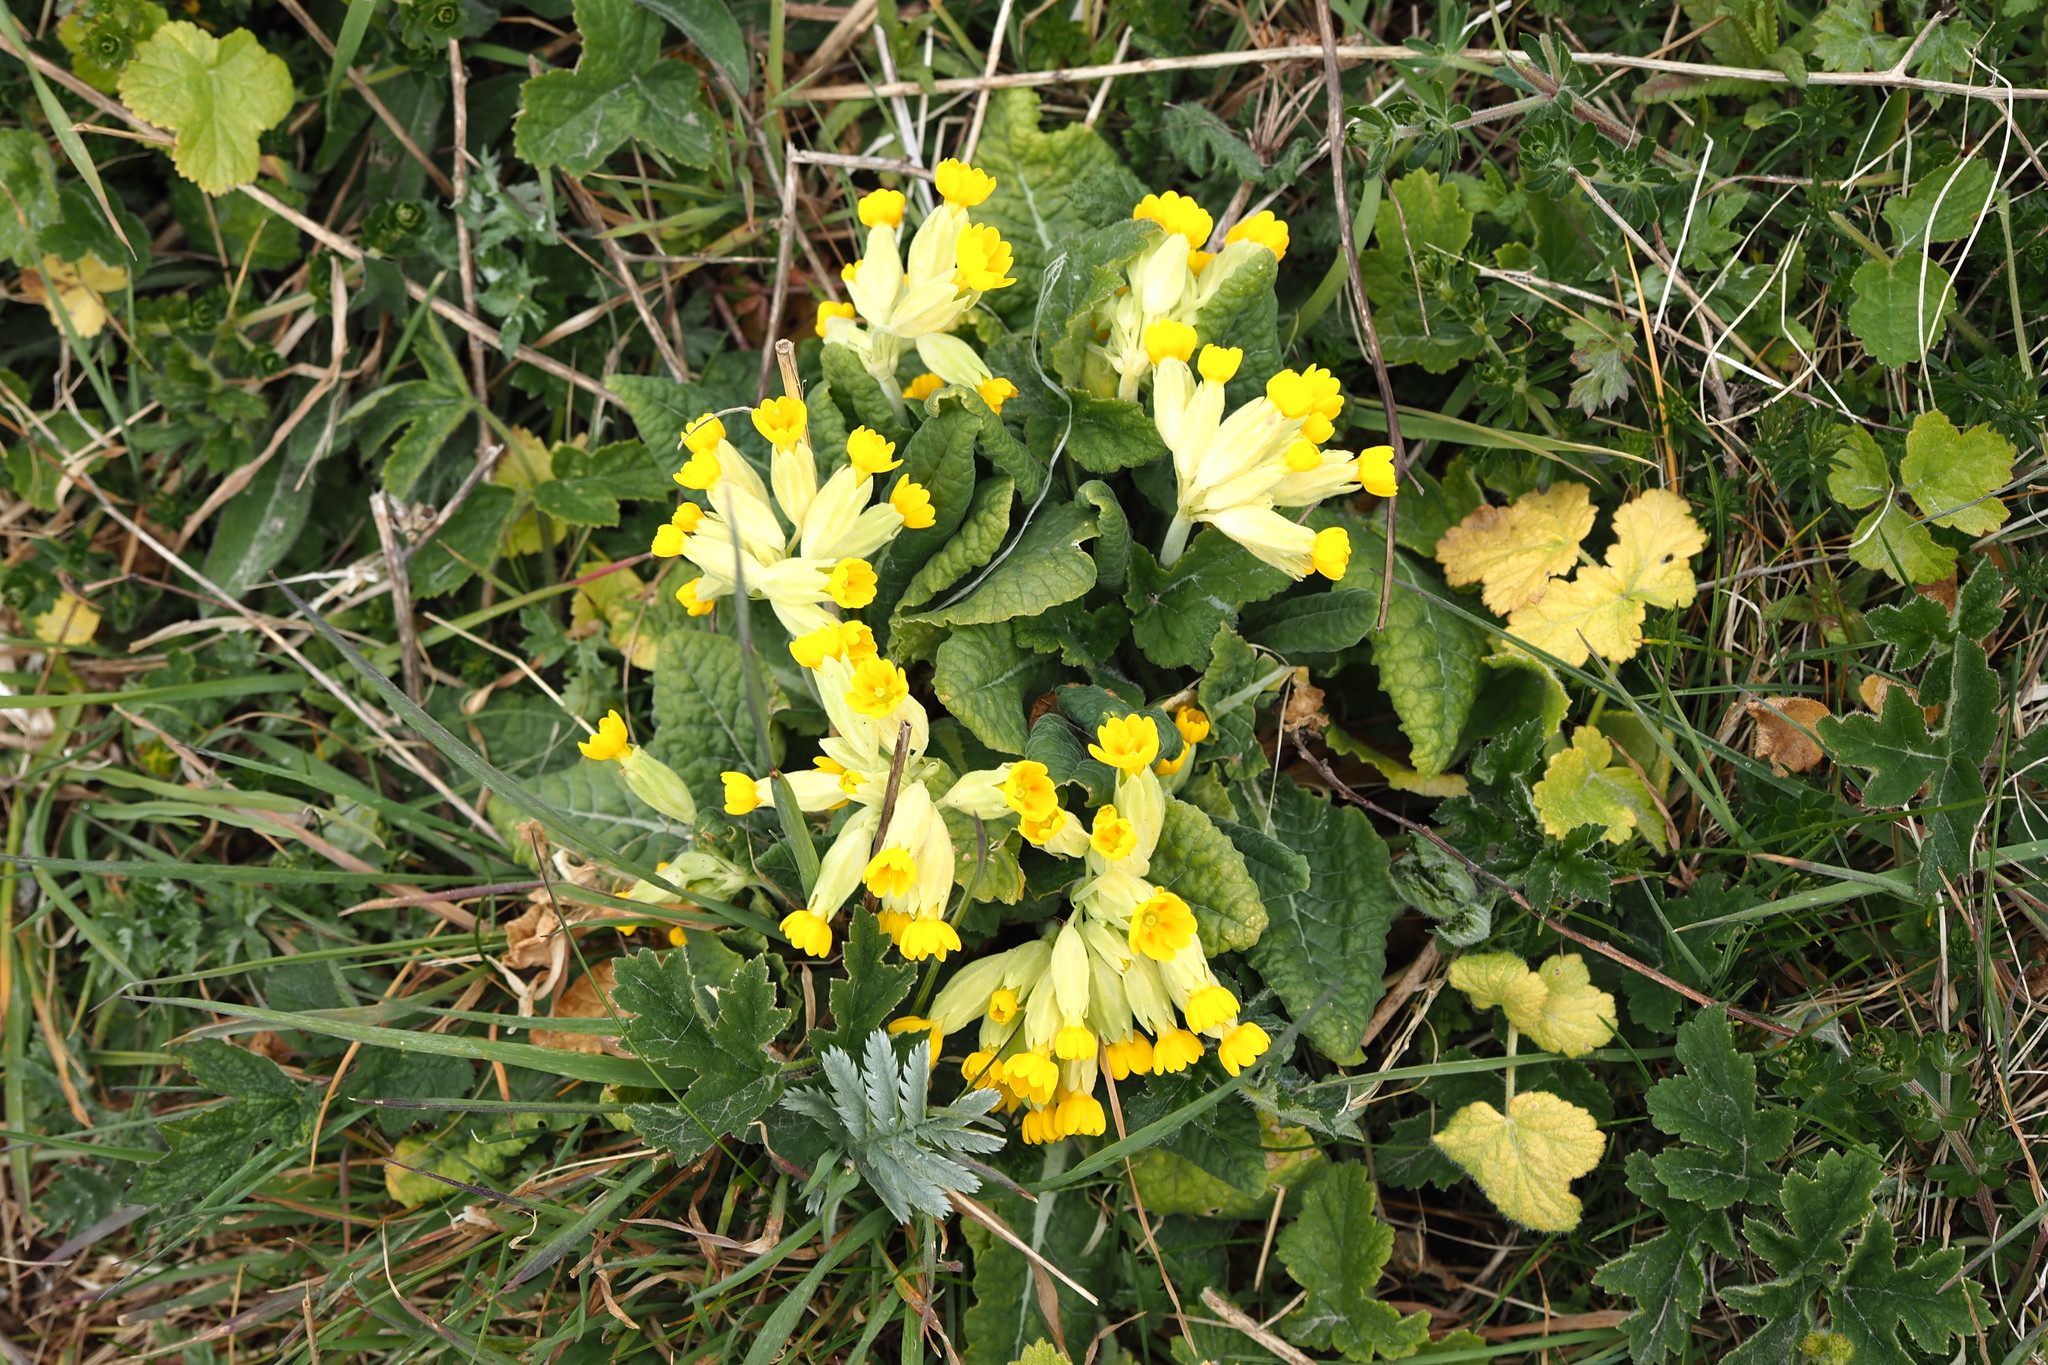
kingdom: Plantae
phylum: Tracheophyta
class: Magnoliopsida
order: Ericales
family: Primulaceae
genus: Primula
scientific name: Primula veris
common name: Cowslip
